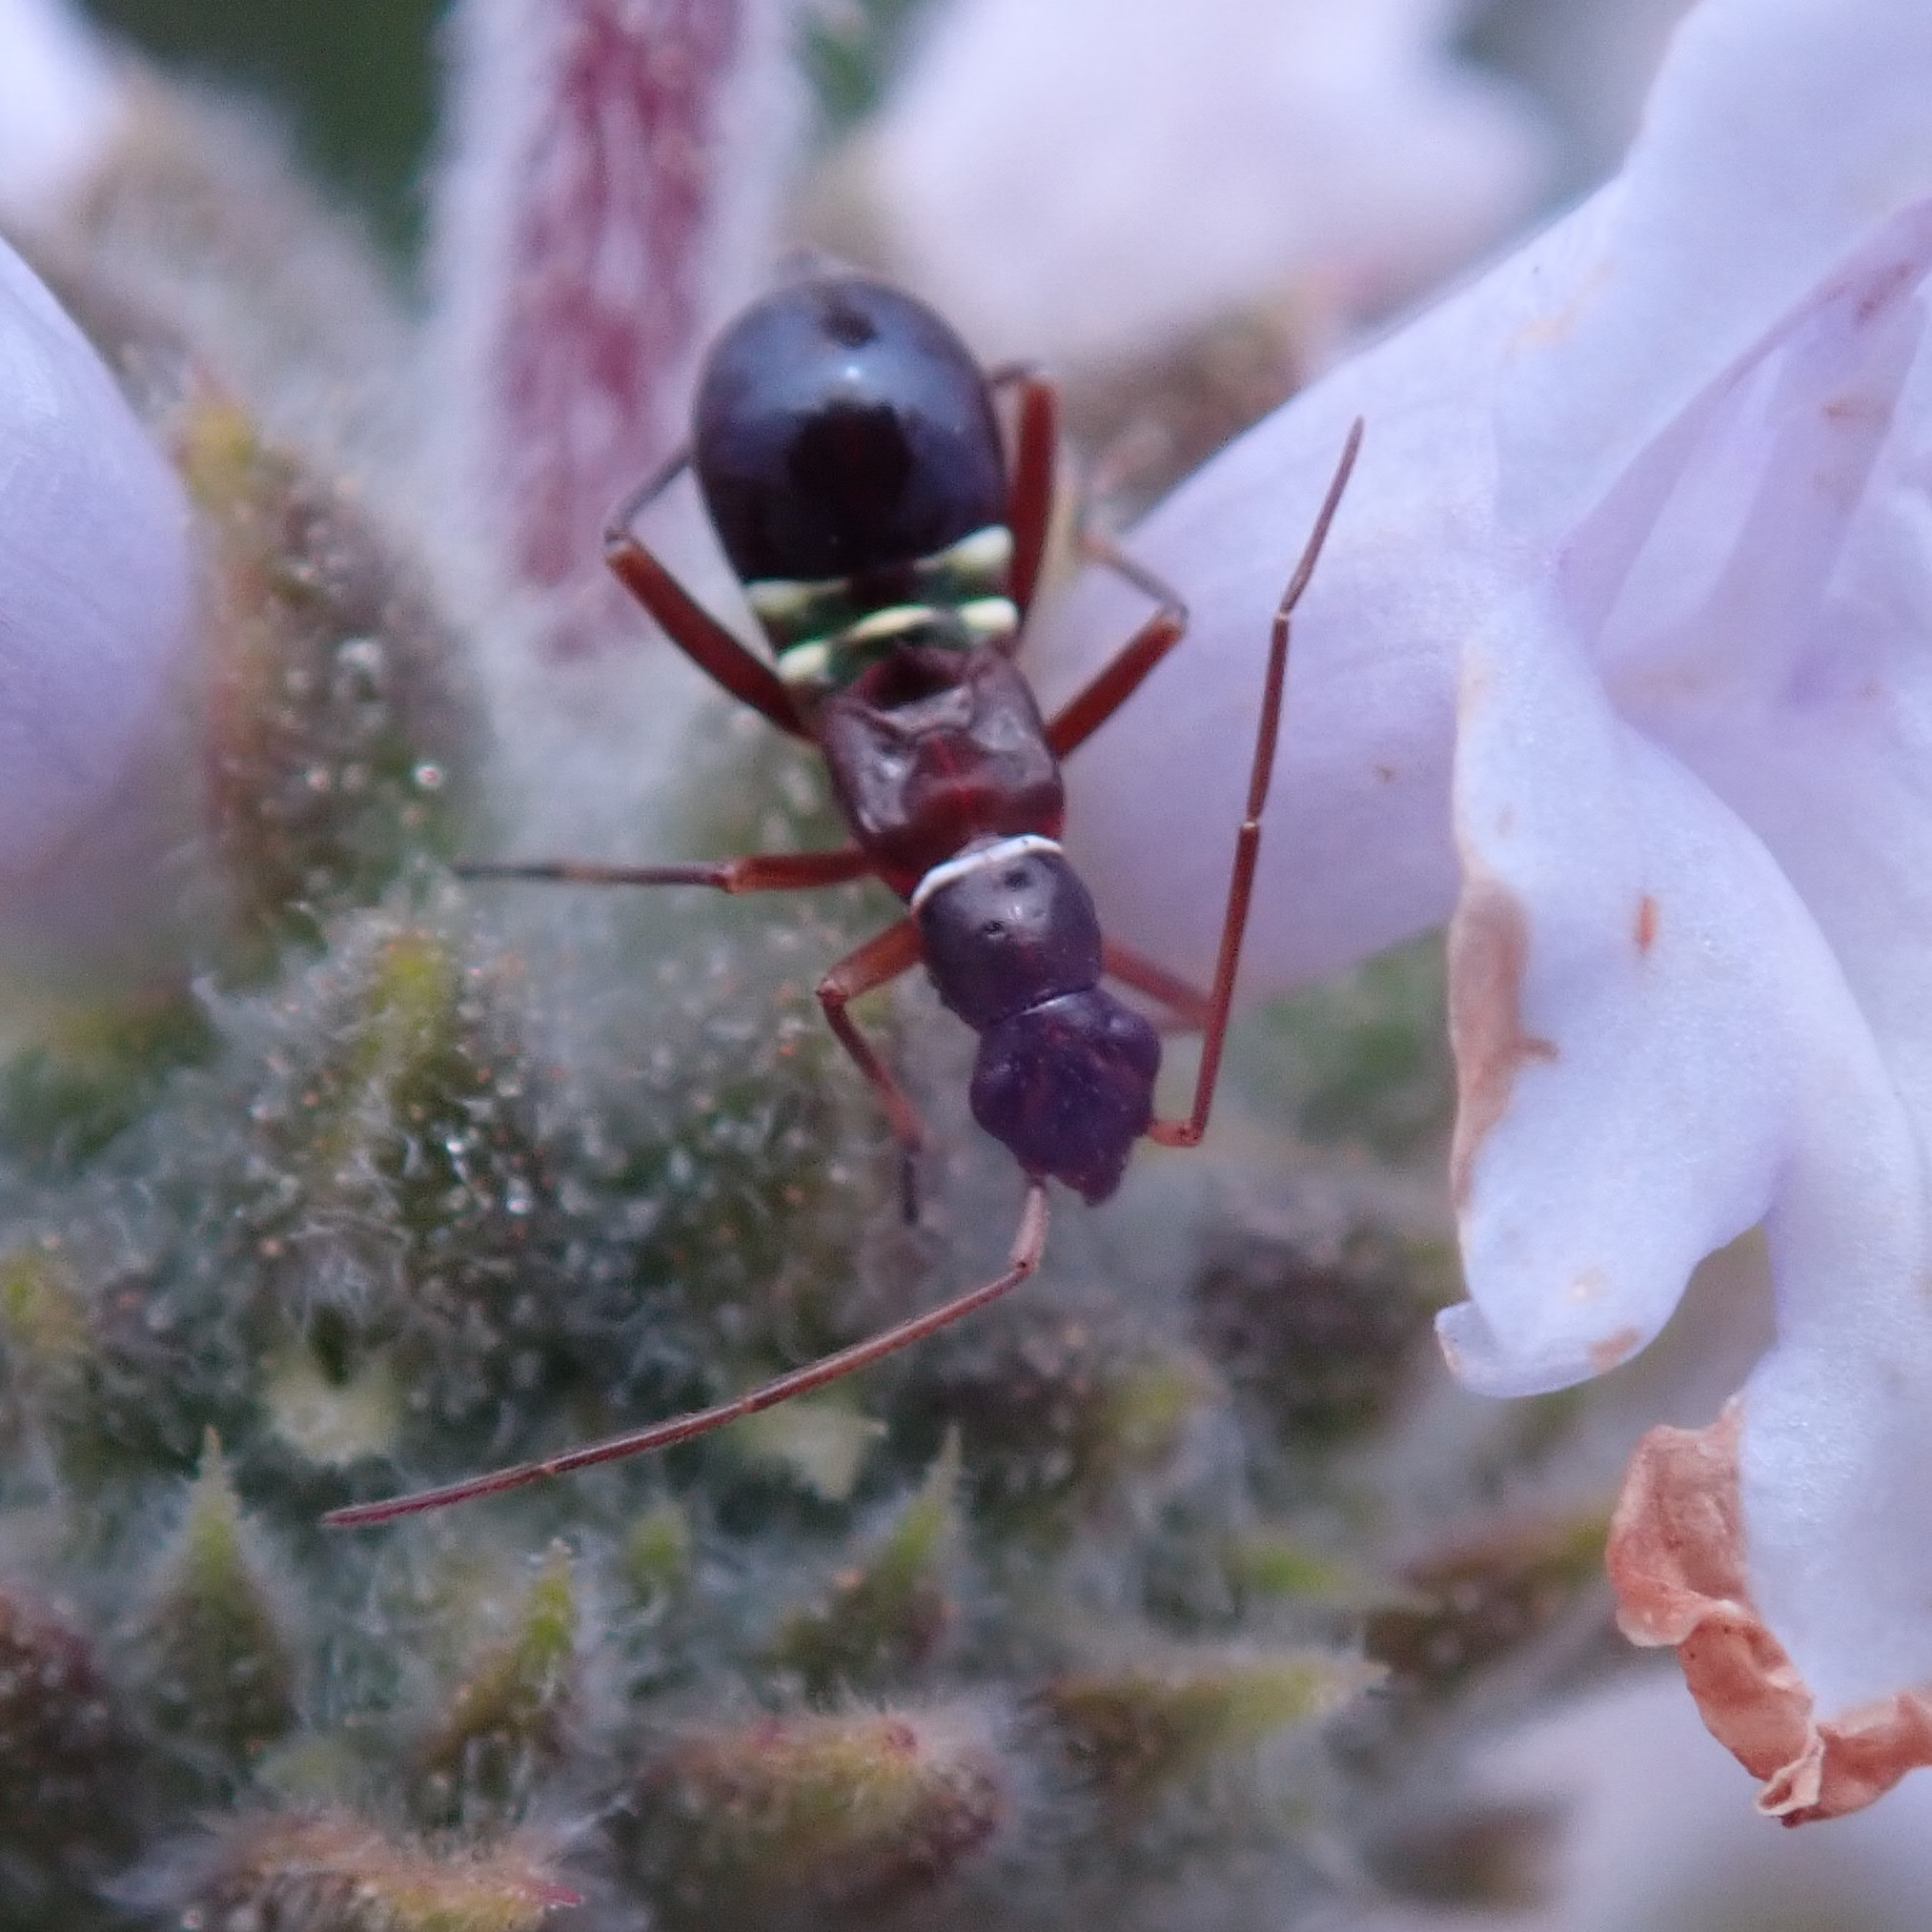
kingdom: Animalia
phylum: Arthropoda
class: Insecta
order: Hemiptera
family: Miridae
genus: Closterocoris
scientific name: Closterocoris amoenus
